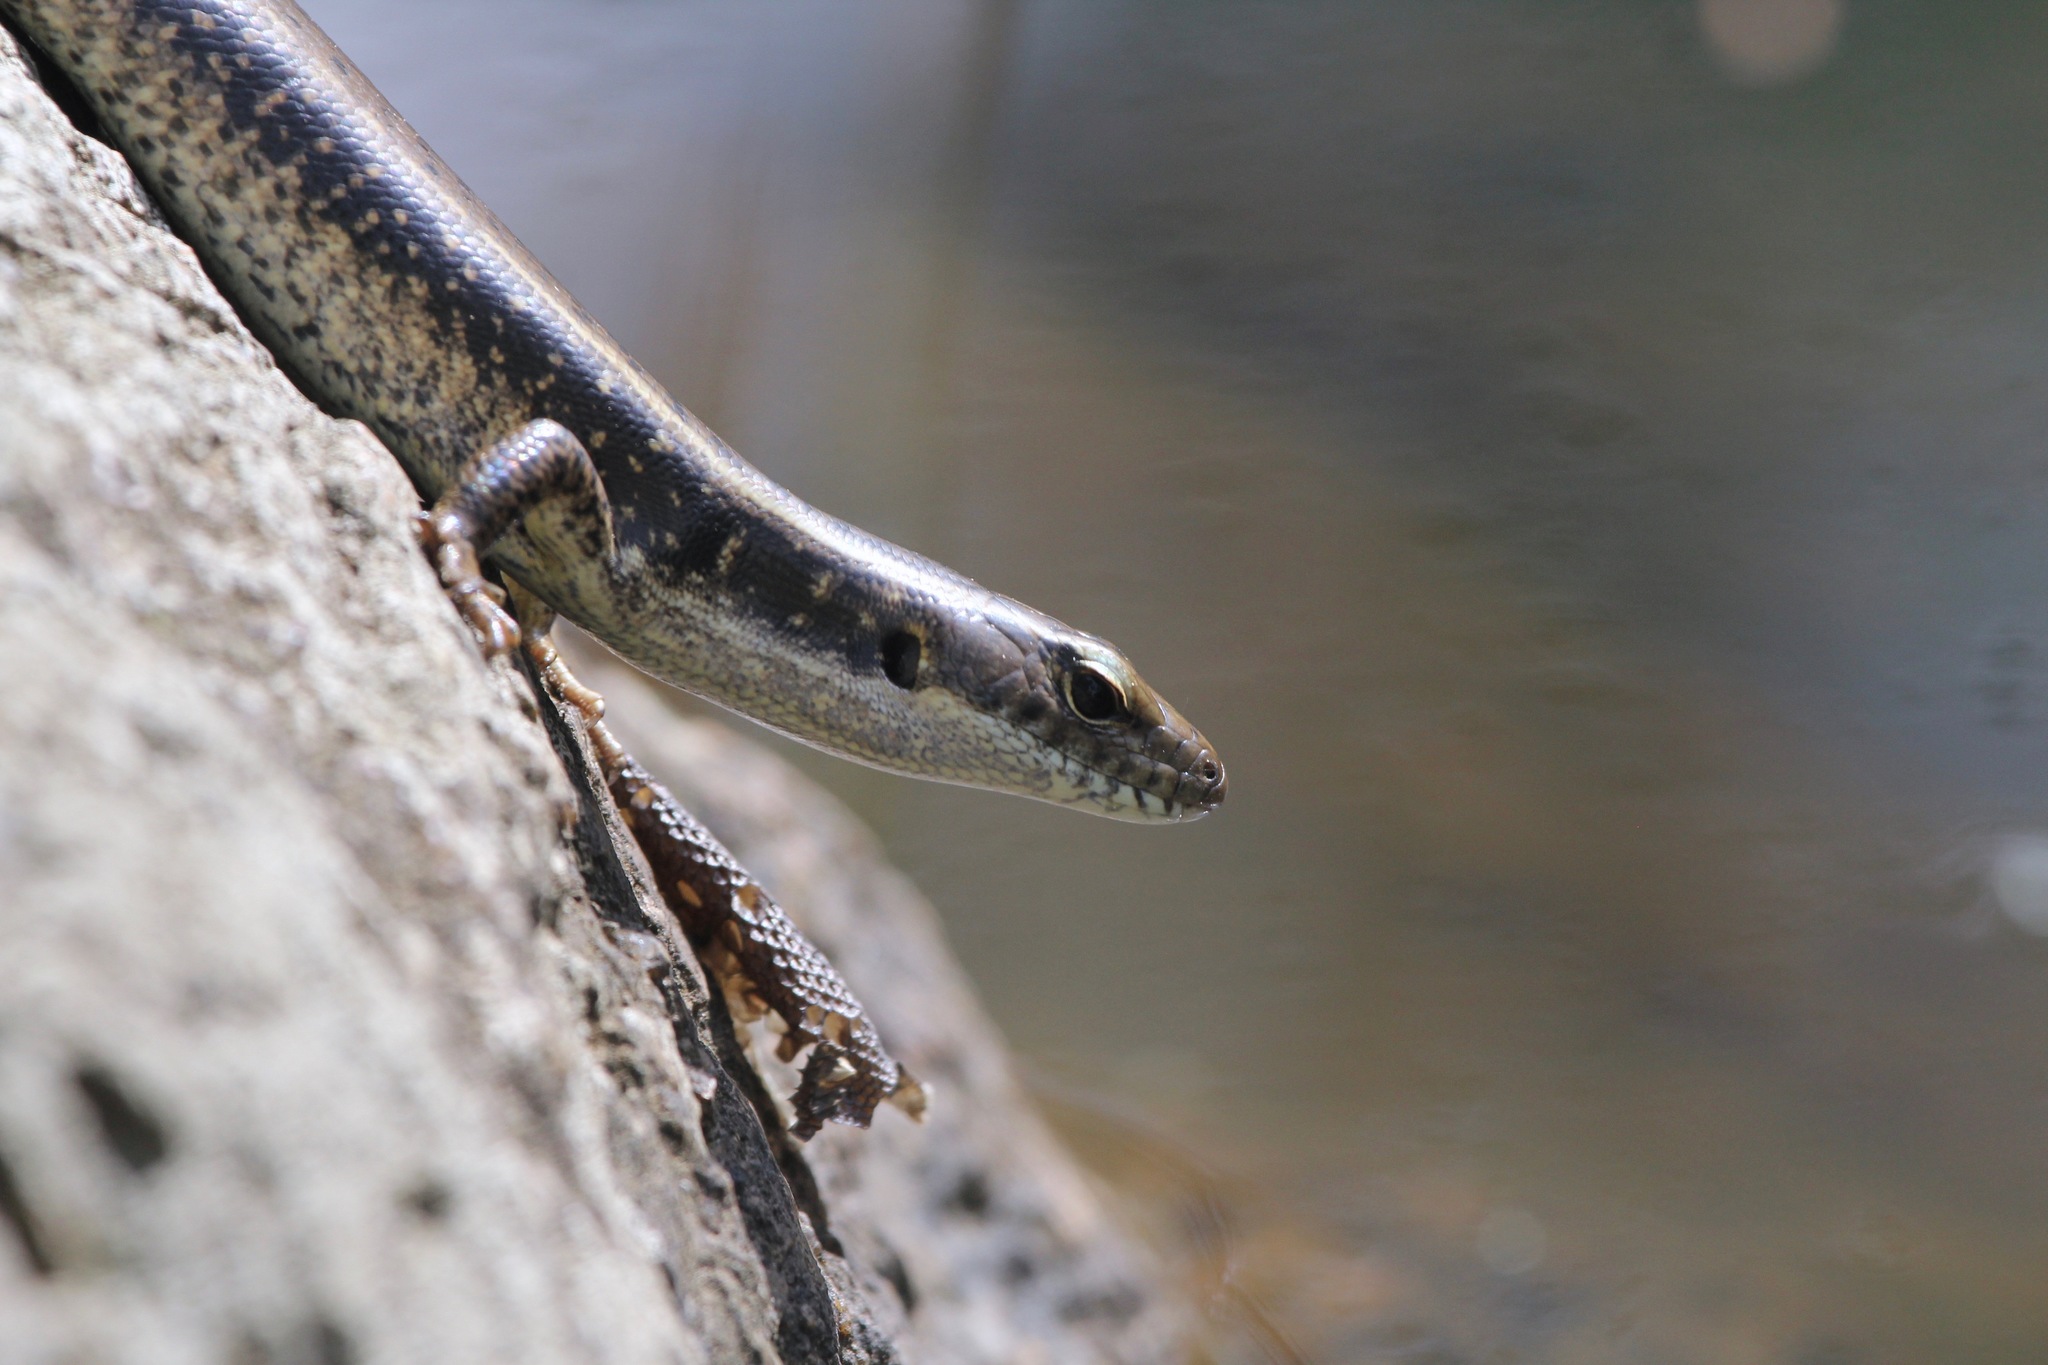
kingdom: Animalia
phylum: Chordata
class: Squamata
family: Scincidae
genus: Eulamprus
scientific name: Eulamprus quoyii
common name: Eastern water skink
